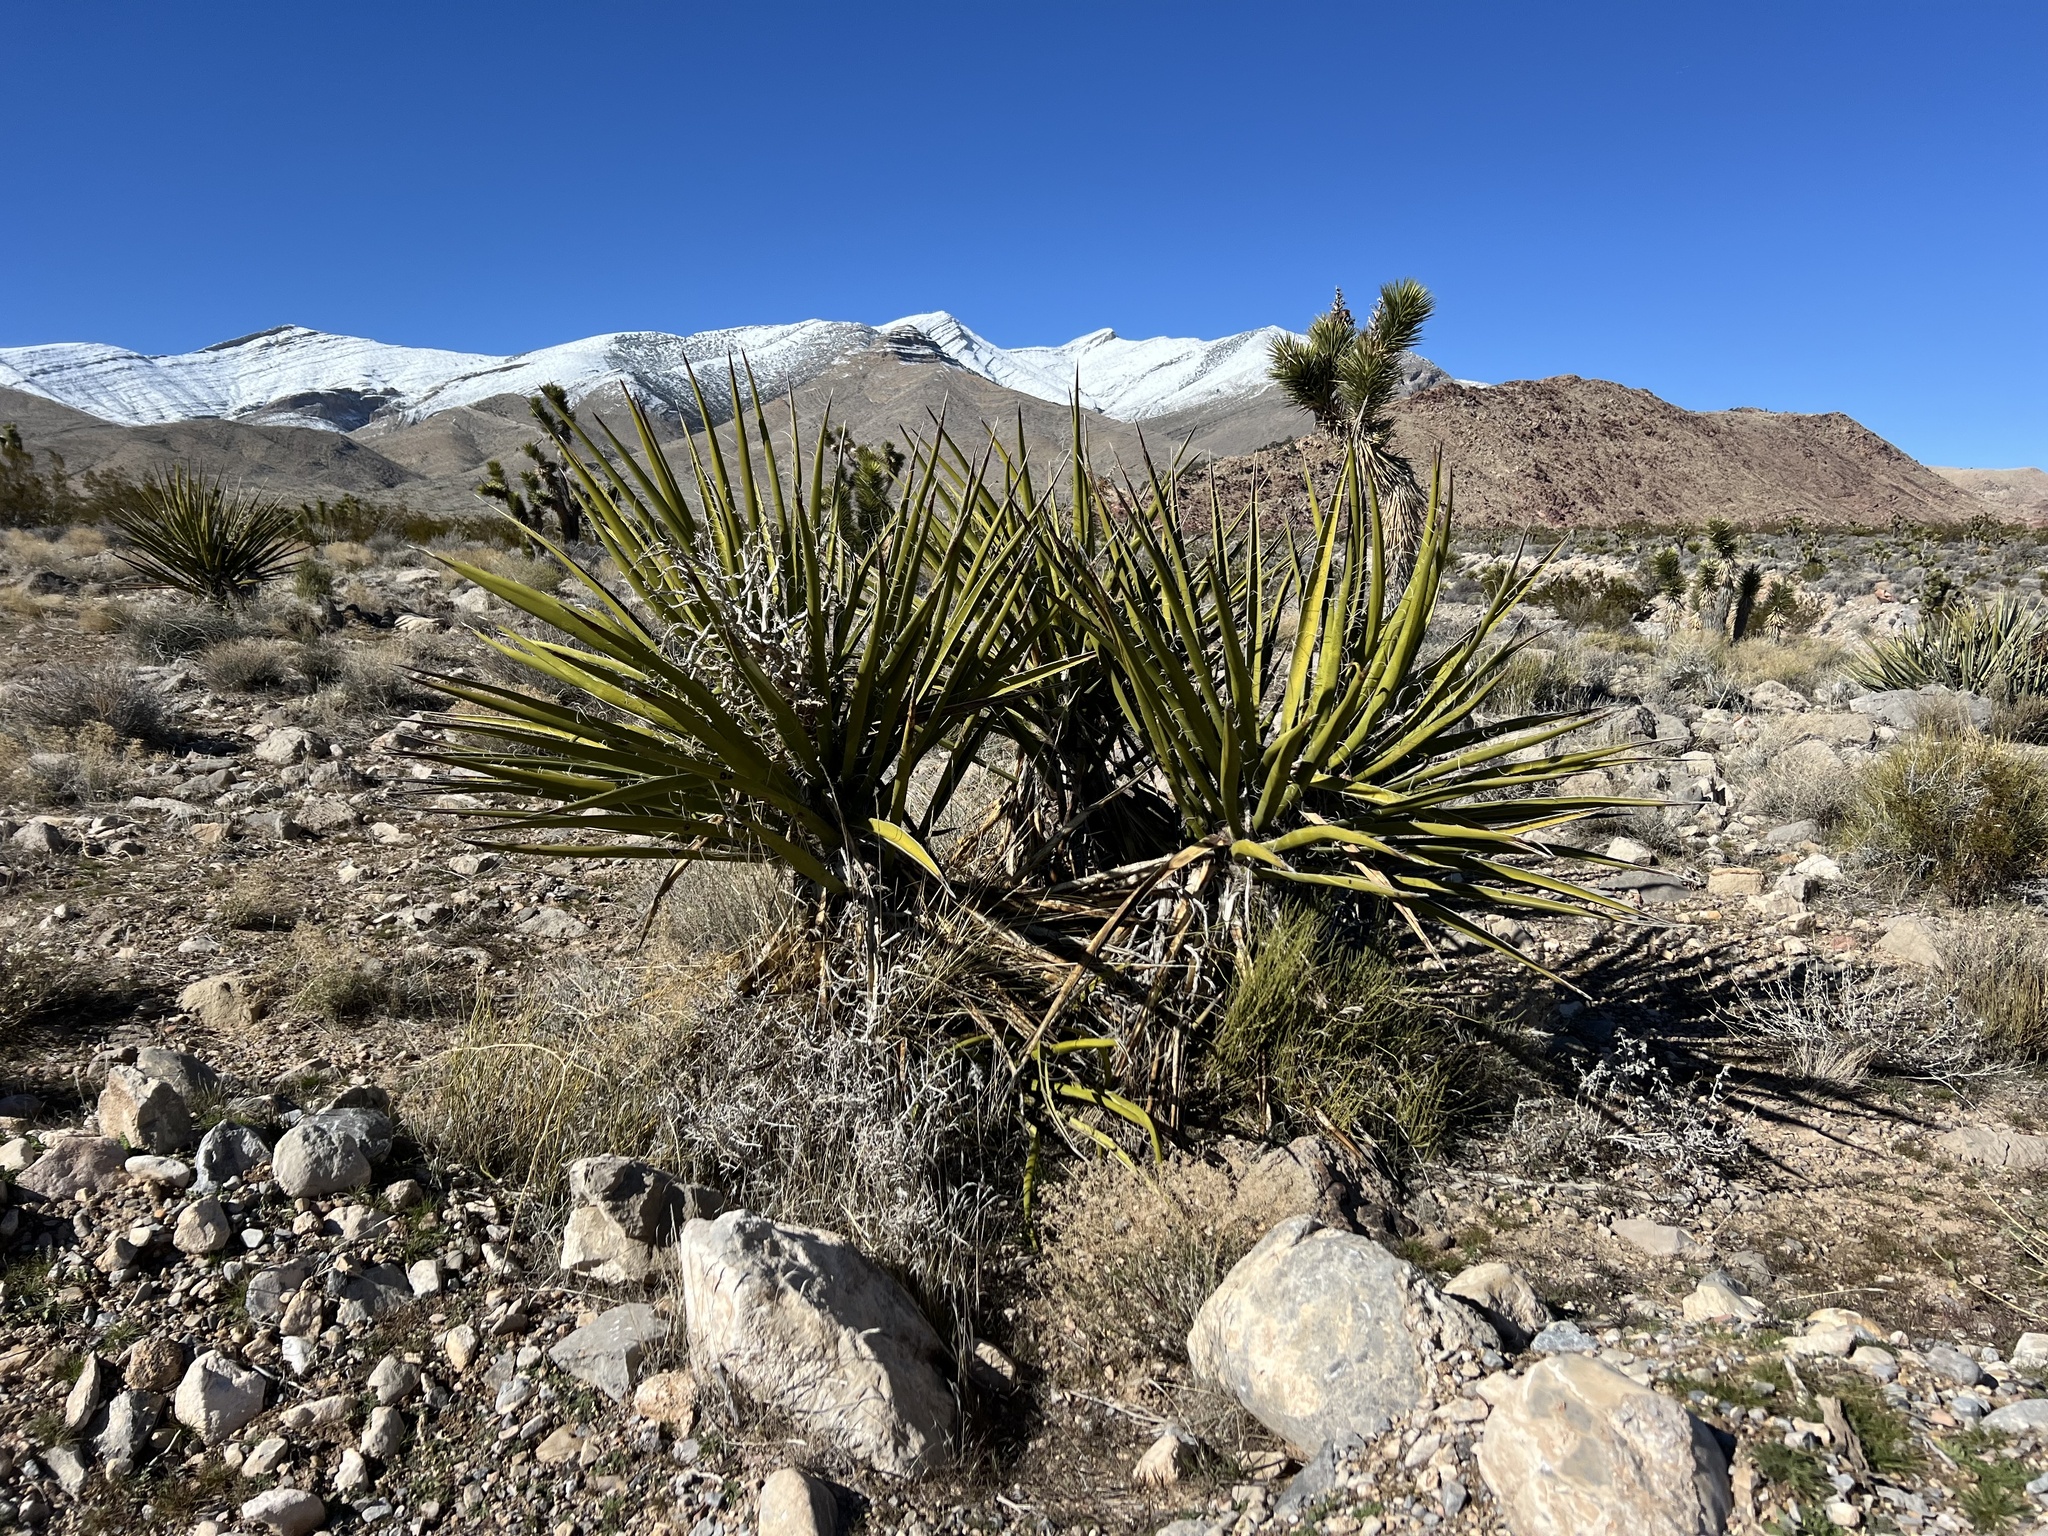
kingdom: Plantae
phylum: Tracheophyta
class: Liliopsida
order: Asparagales
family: Asparagaceae
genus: Yucca
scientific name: Yucca schidigera
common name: Mojave yucca
